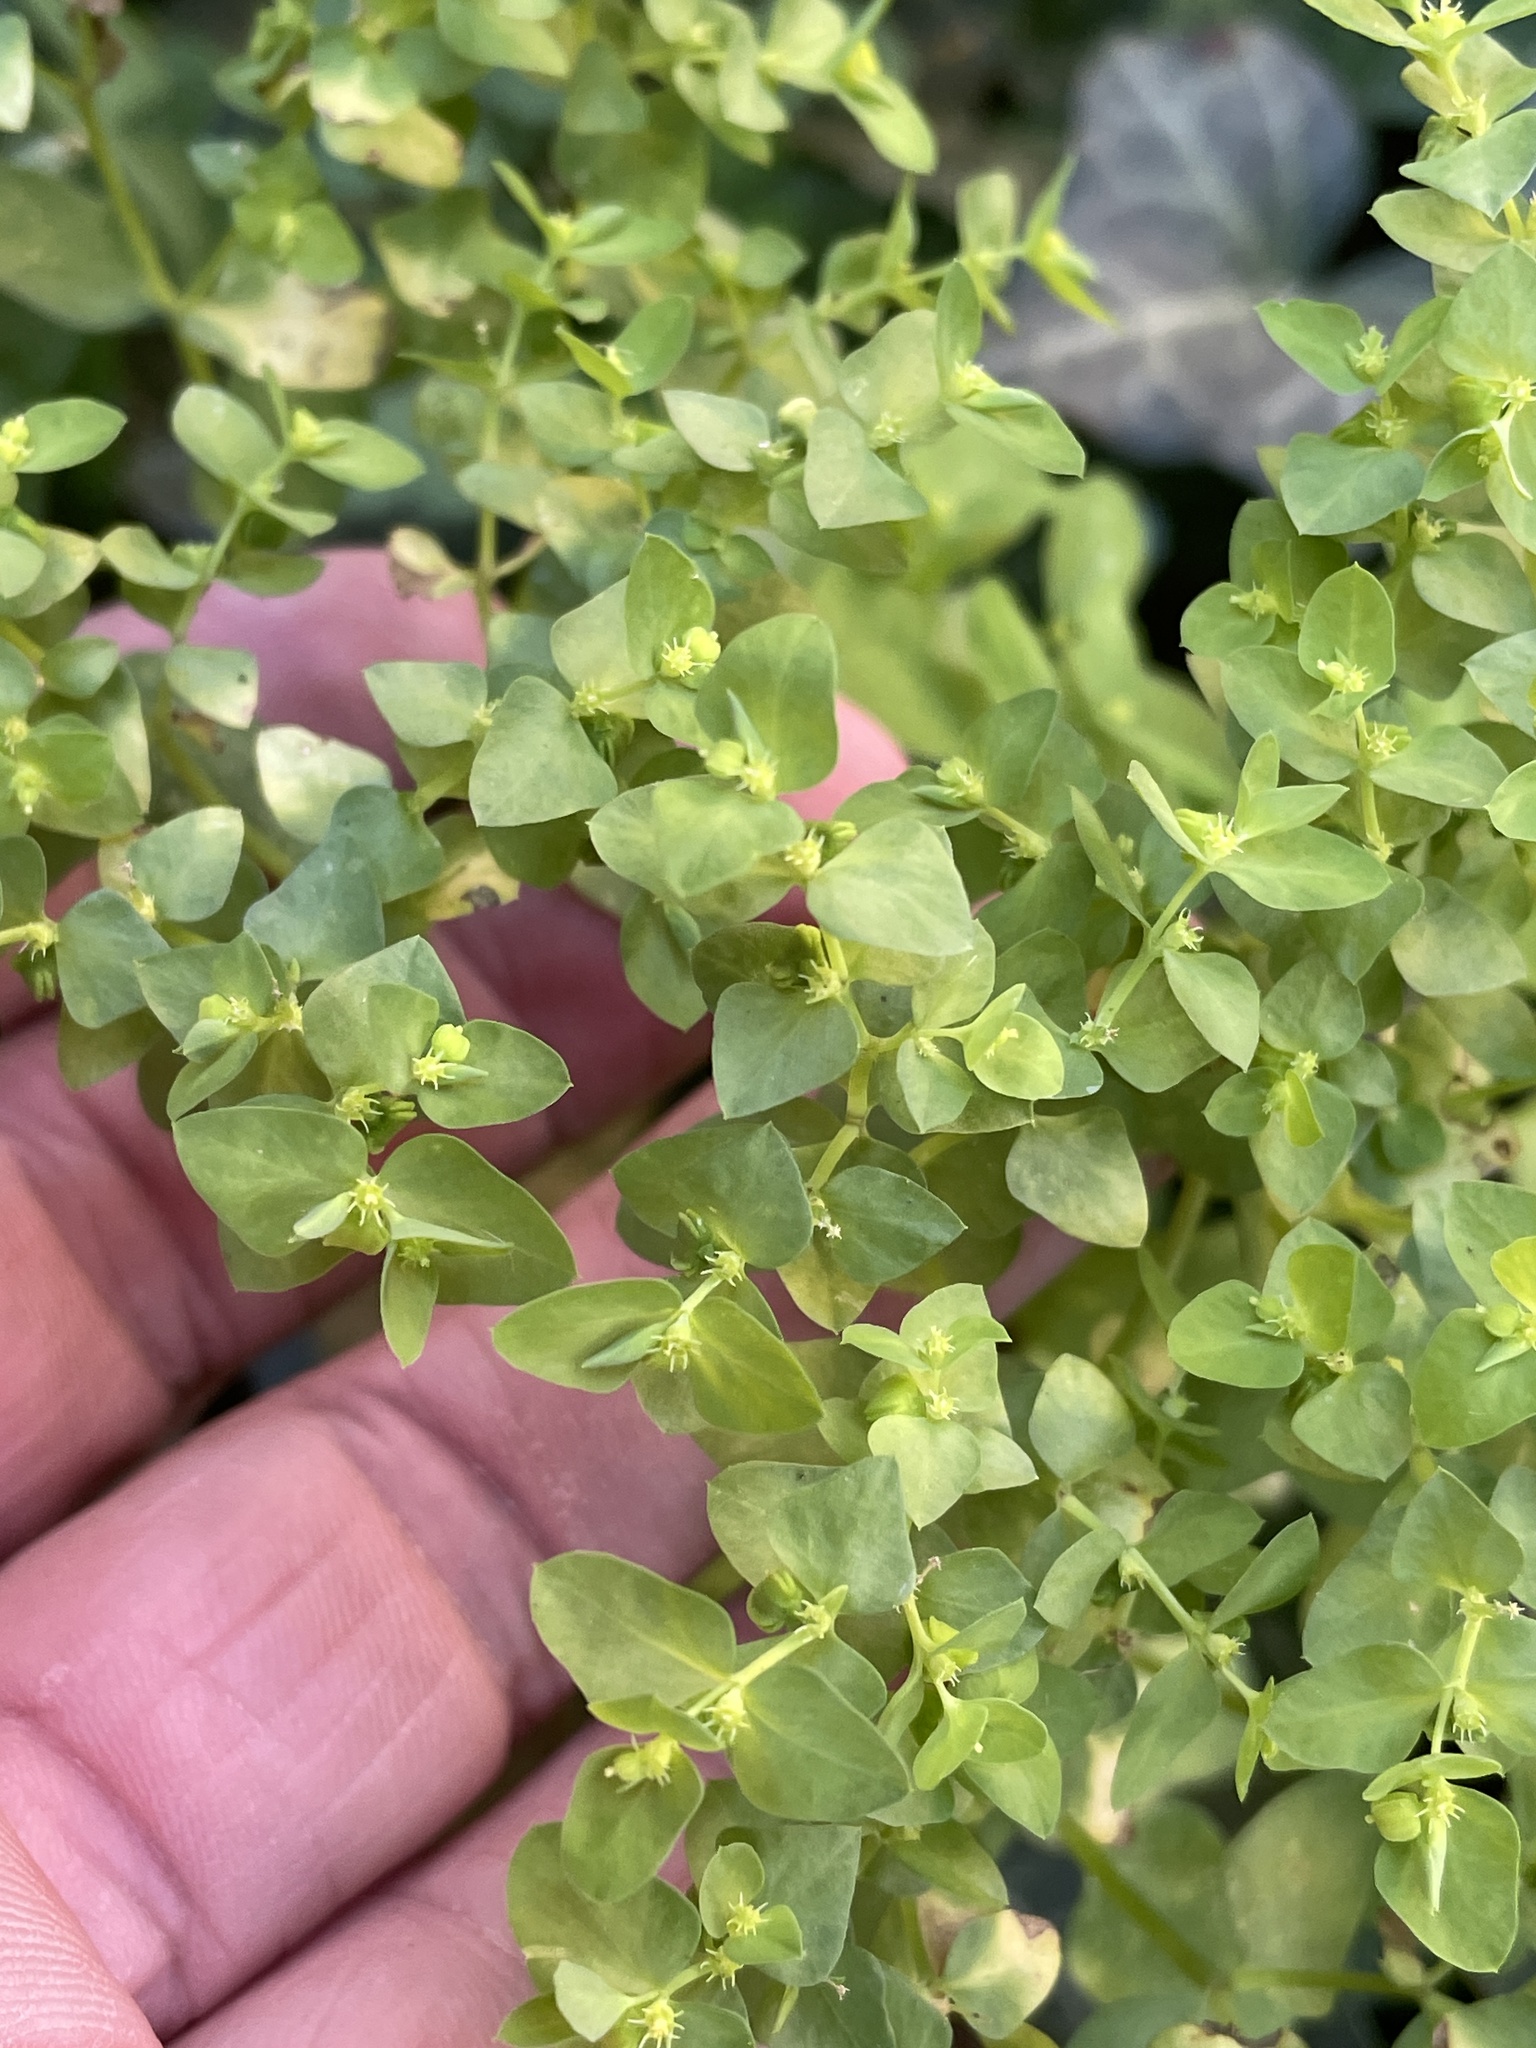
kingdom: Plantae
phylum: Tracheophyta
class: Magnoliopsida
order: Malpighiales
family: Euphorbiaceae
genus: Euphorbia
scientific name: Euphorbia peplus
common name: Petty spurge
